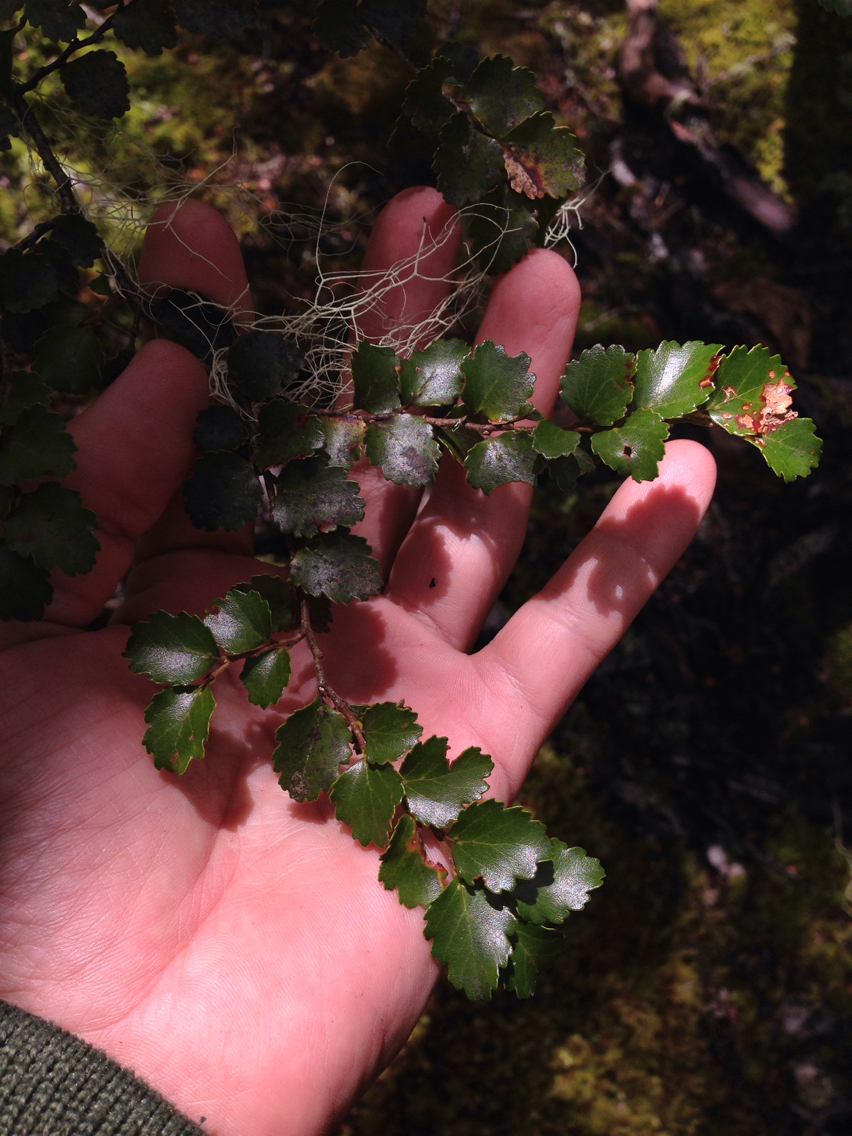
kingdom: Plantae
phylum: Tracheophyta
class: Magnoliopsida
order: Fagales
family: Nothofagaceae
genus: Nothofagus
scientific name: Nothofagus menziesii
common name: Silver beech
